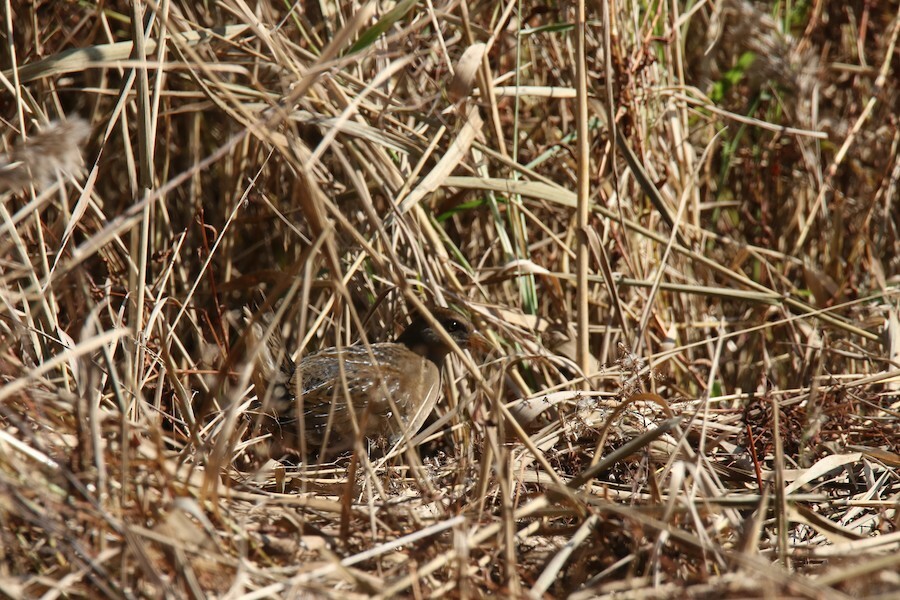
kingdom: Animalia
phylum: Chordata
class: Aves
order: Gruiformes
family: Rallidae
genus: Porzana
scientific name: Porzana carolina
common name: Sora
